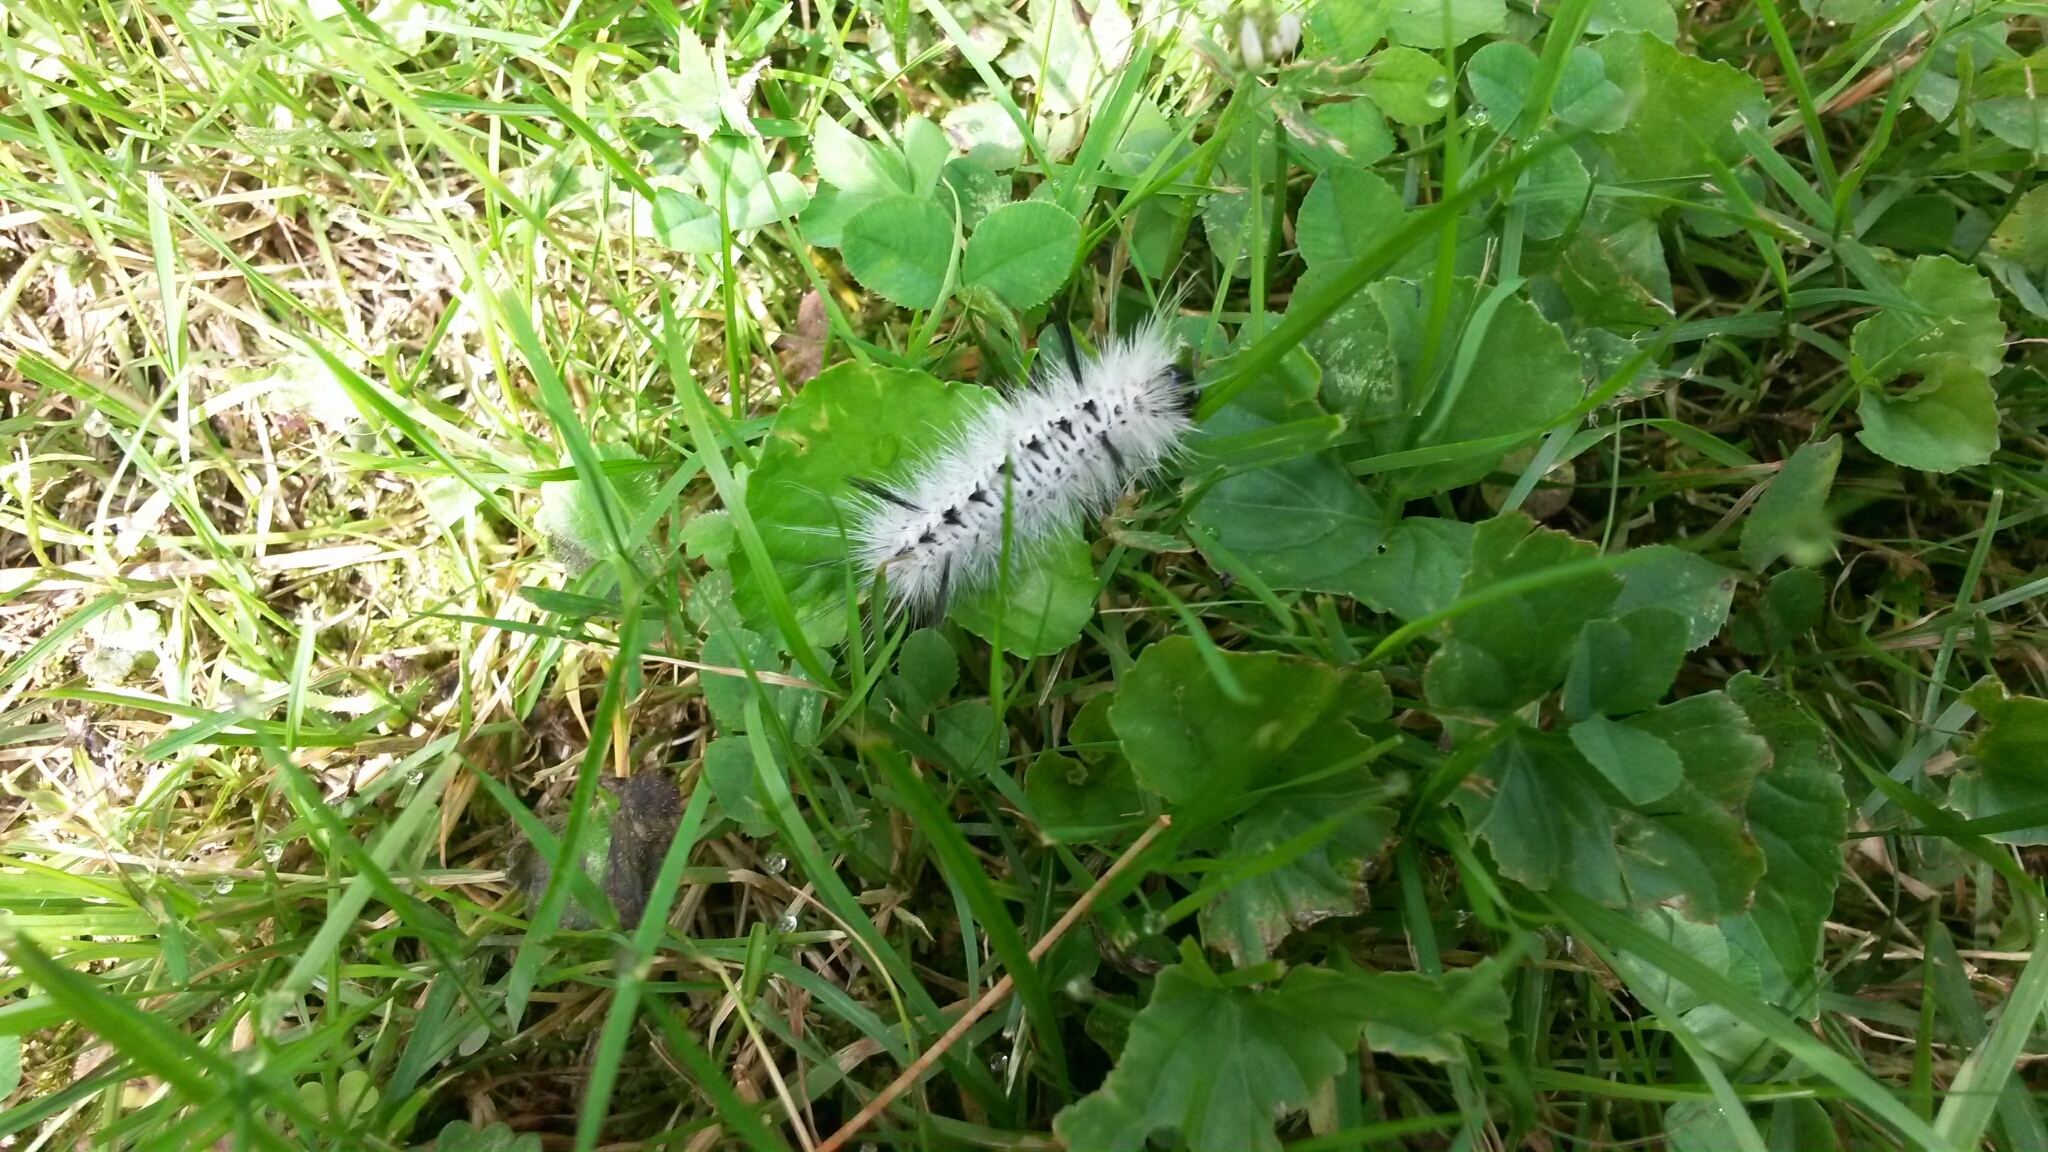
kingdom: Animalia
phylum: Arthropoda
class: Insecta
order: Lepidoptera
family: Erebidae
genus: Lophocampa
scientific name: Lophocampa caryae
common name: Hickory tussock moth
